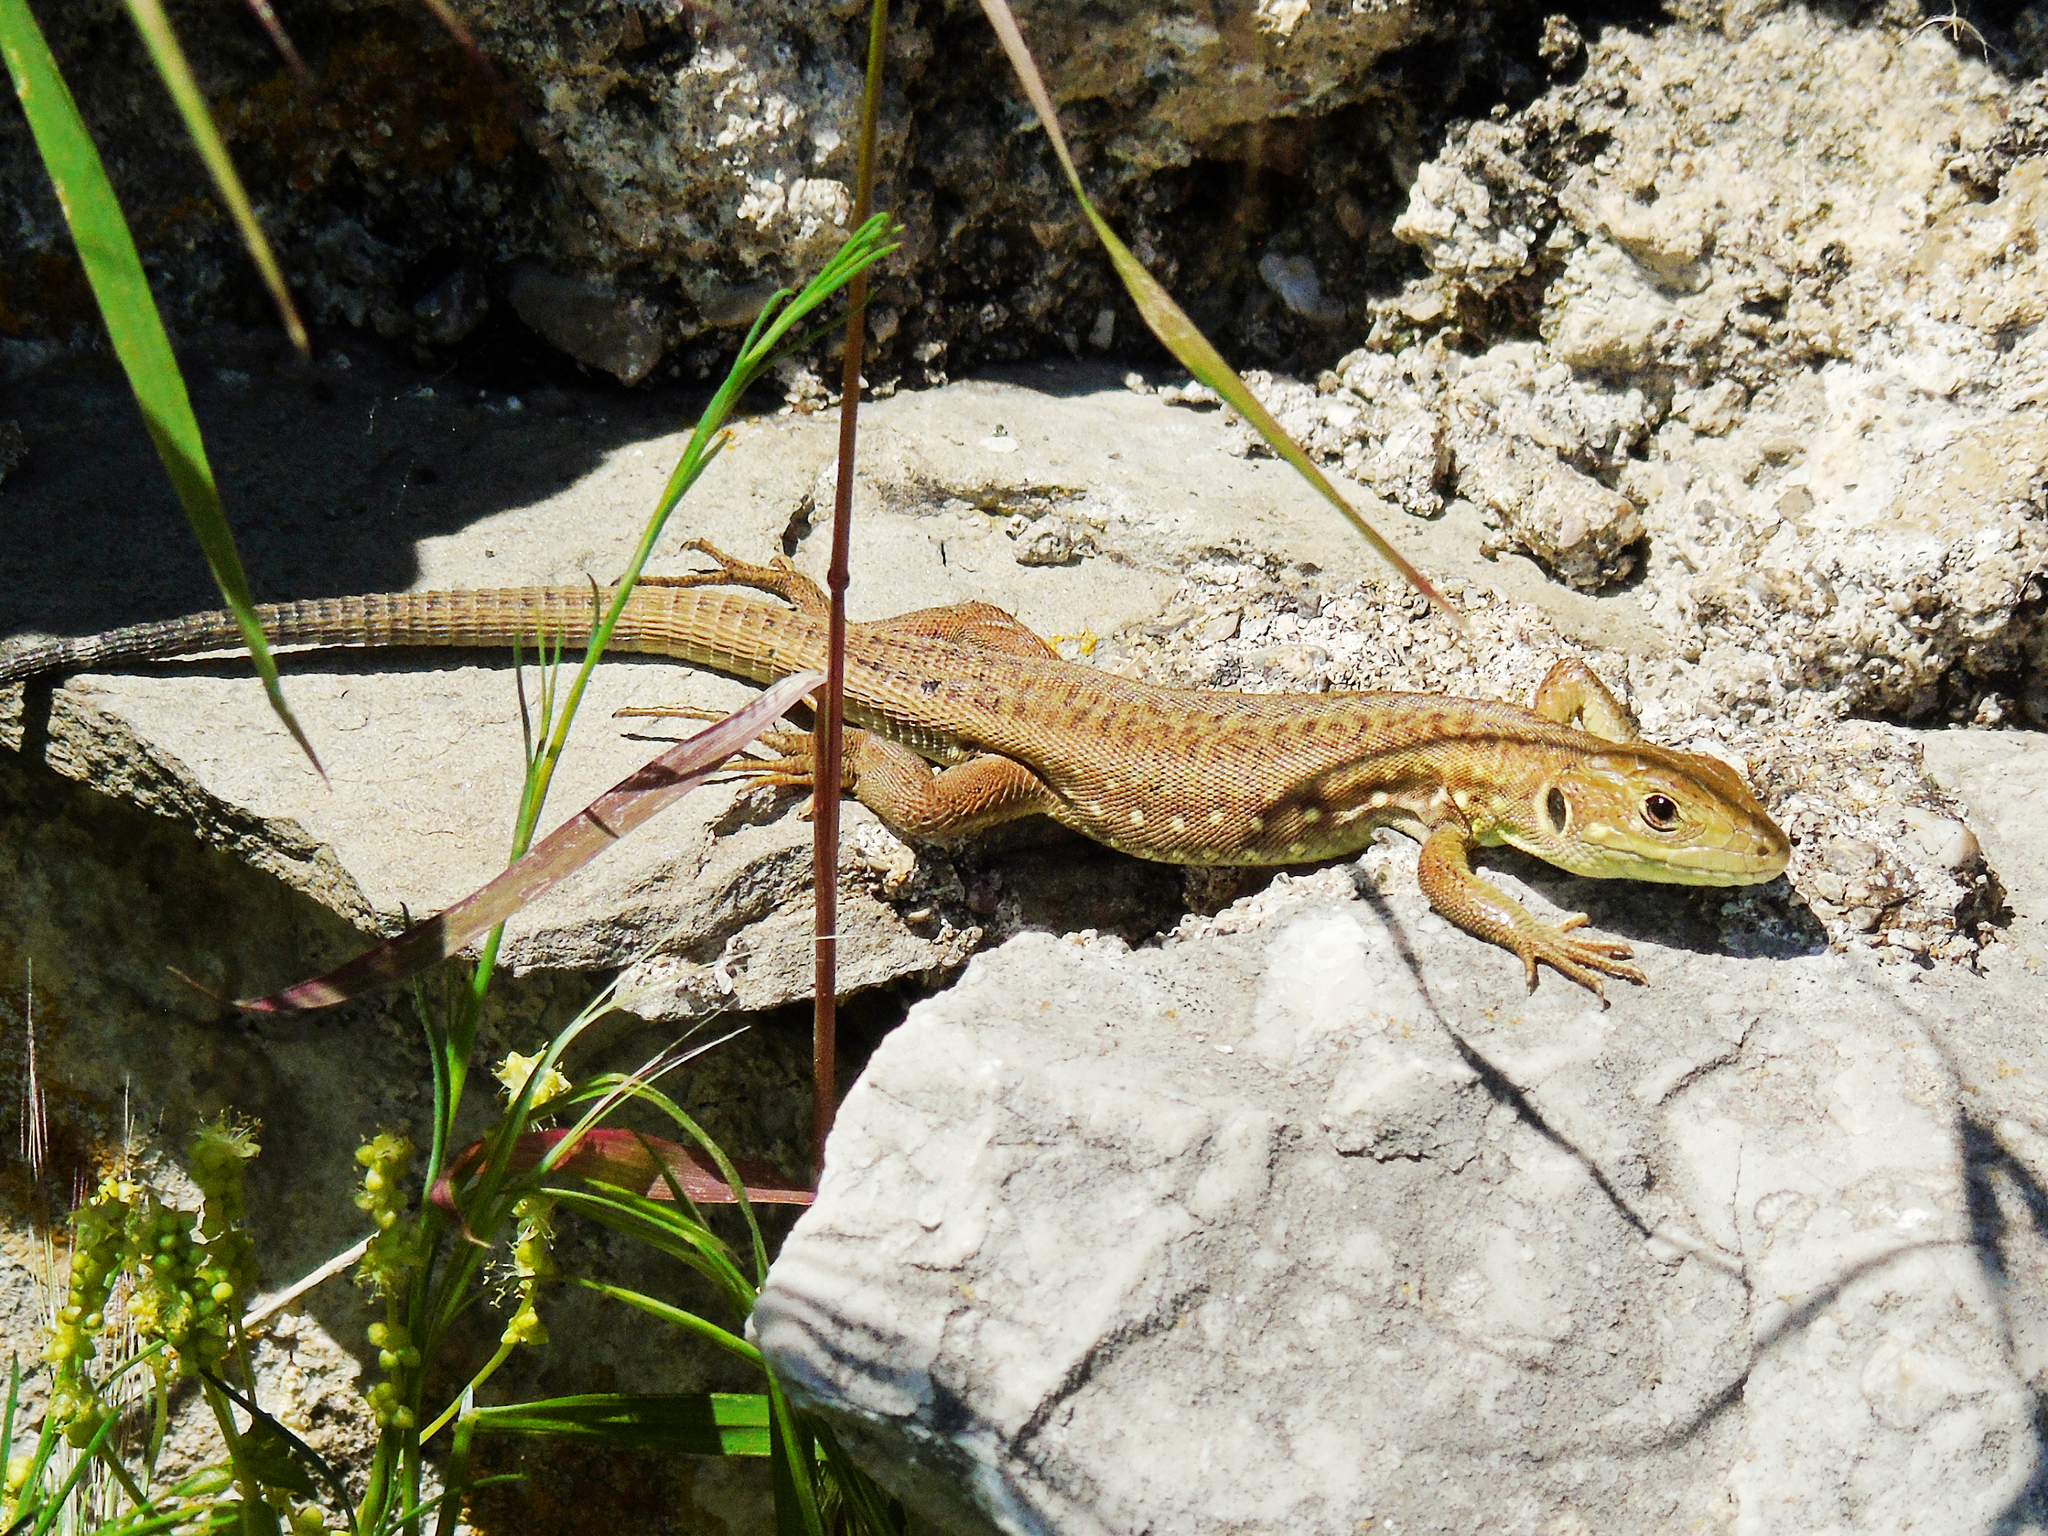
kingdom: Animalia
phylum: Chordata
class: Squamata
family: Lacertidae
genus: Lacerta
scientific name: Lacerta trilineata
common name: Balkan green lizard
